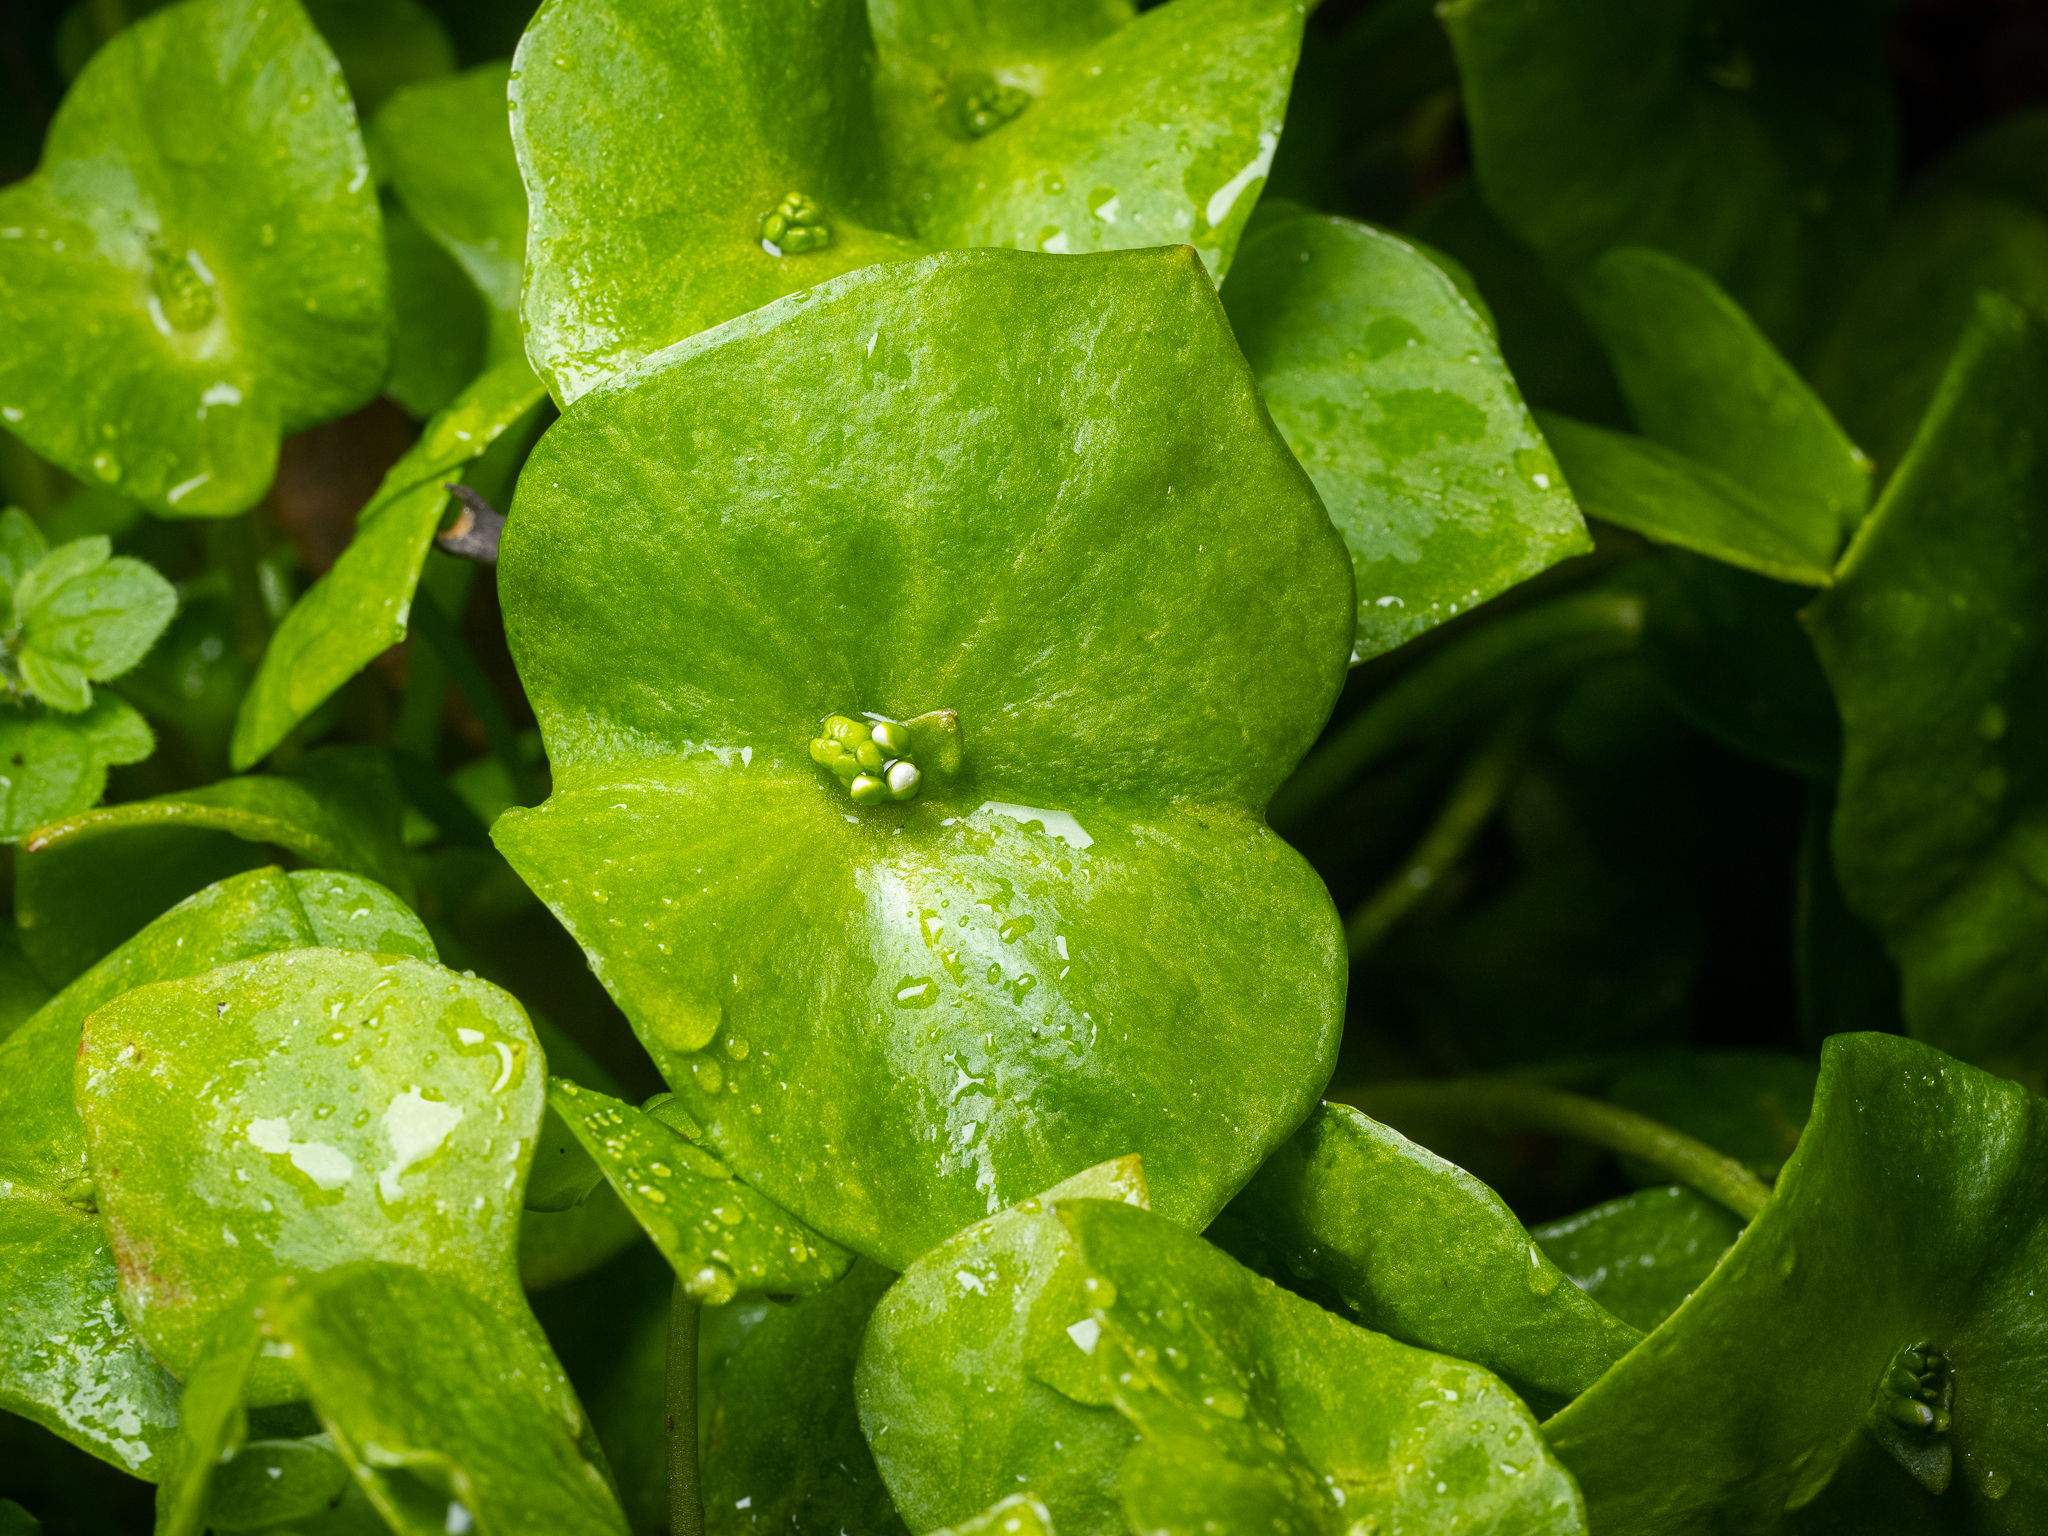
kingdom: Plantae
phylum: Tracheophyta
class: Magnoliopsida
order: Caryophyllales
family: Montiaceae
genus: Claytonia
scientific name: Claytonia perfoliata
